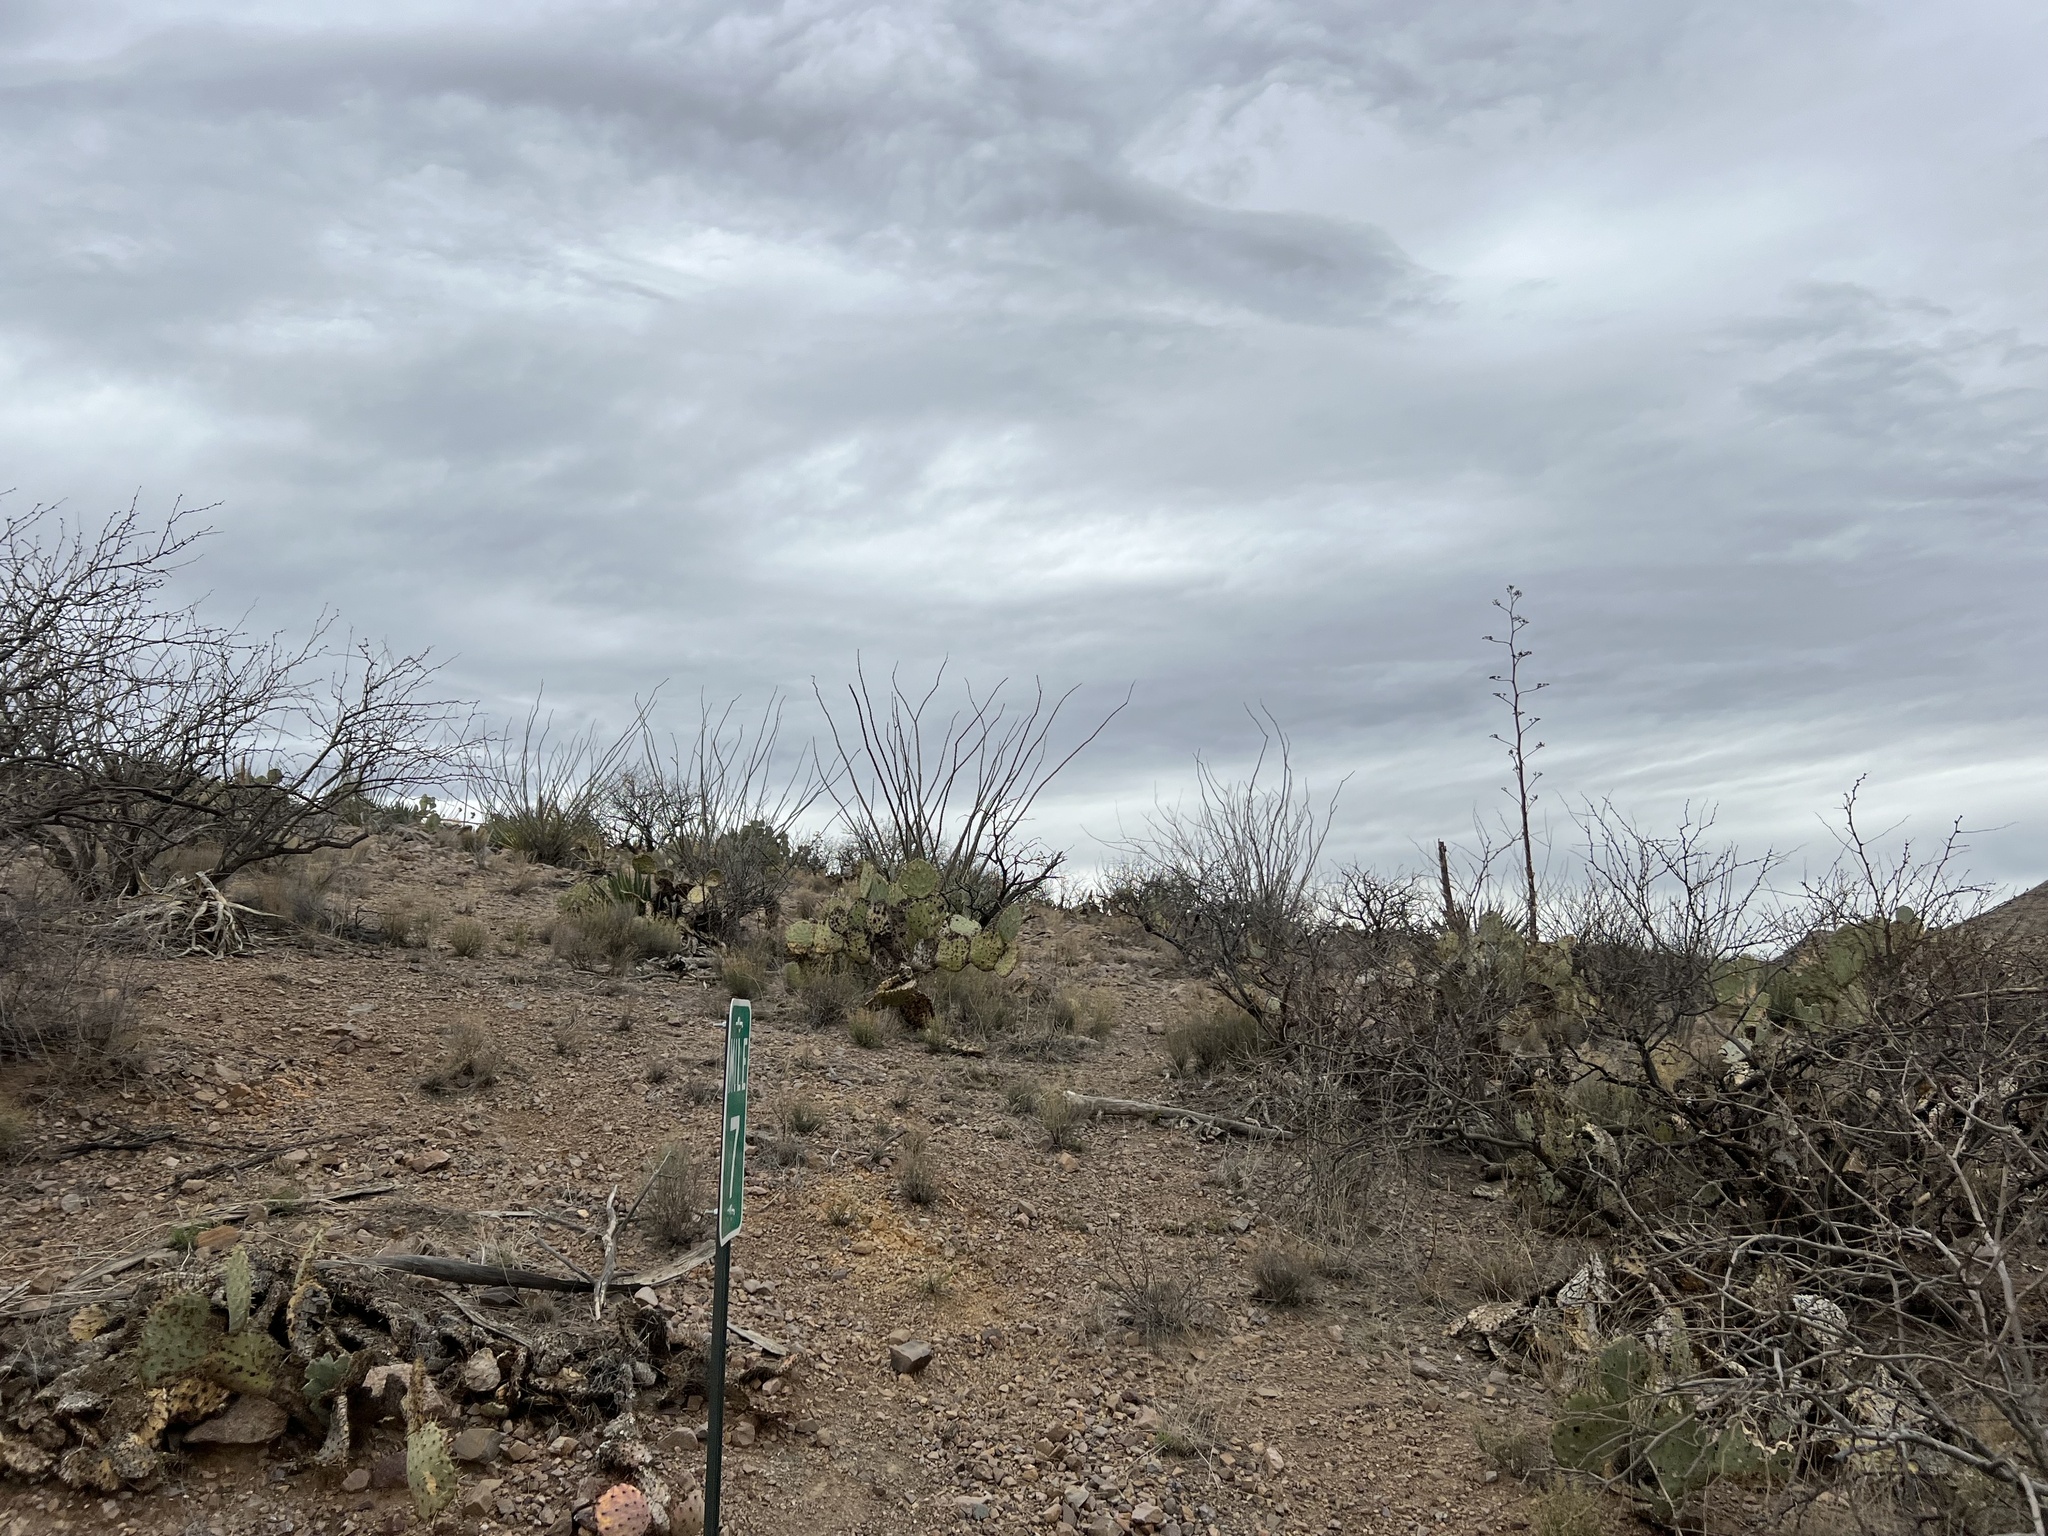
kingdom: Plantae
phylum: Tracheophyta
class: Magnoliopsida
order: Ericales
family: Fouquieriaceae
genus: Fouquieria
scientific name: Fouquieria splendens
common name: Vine-cactus
